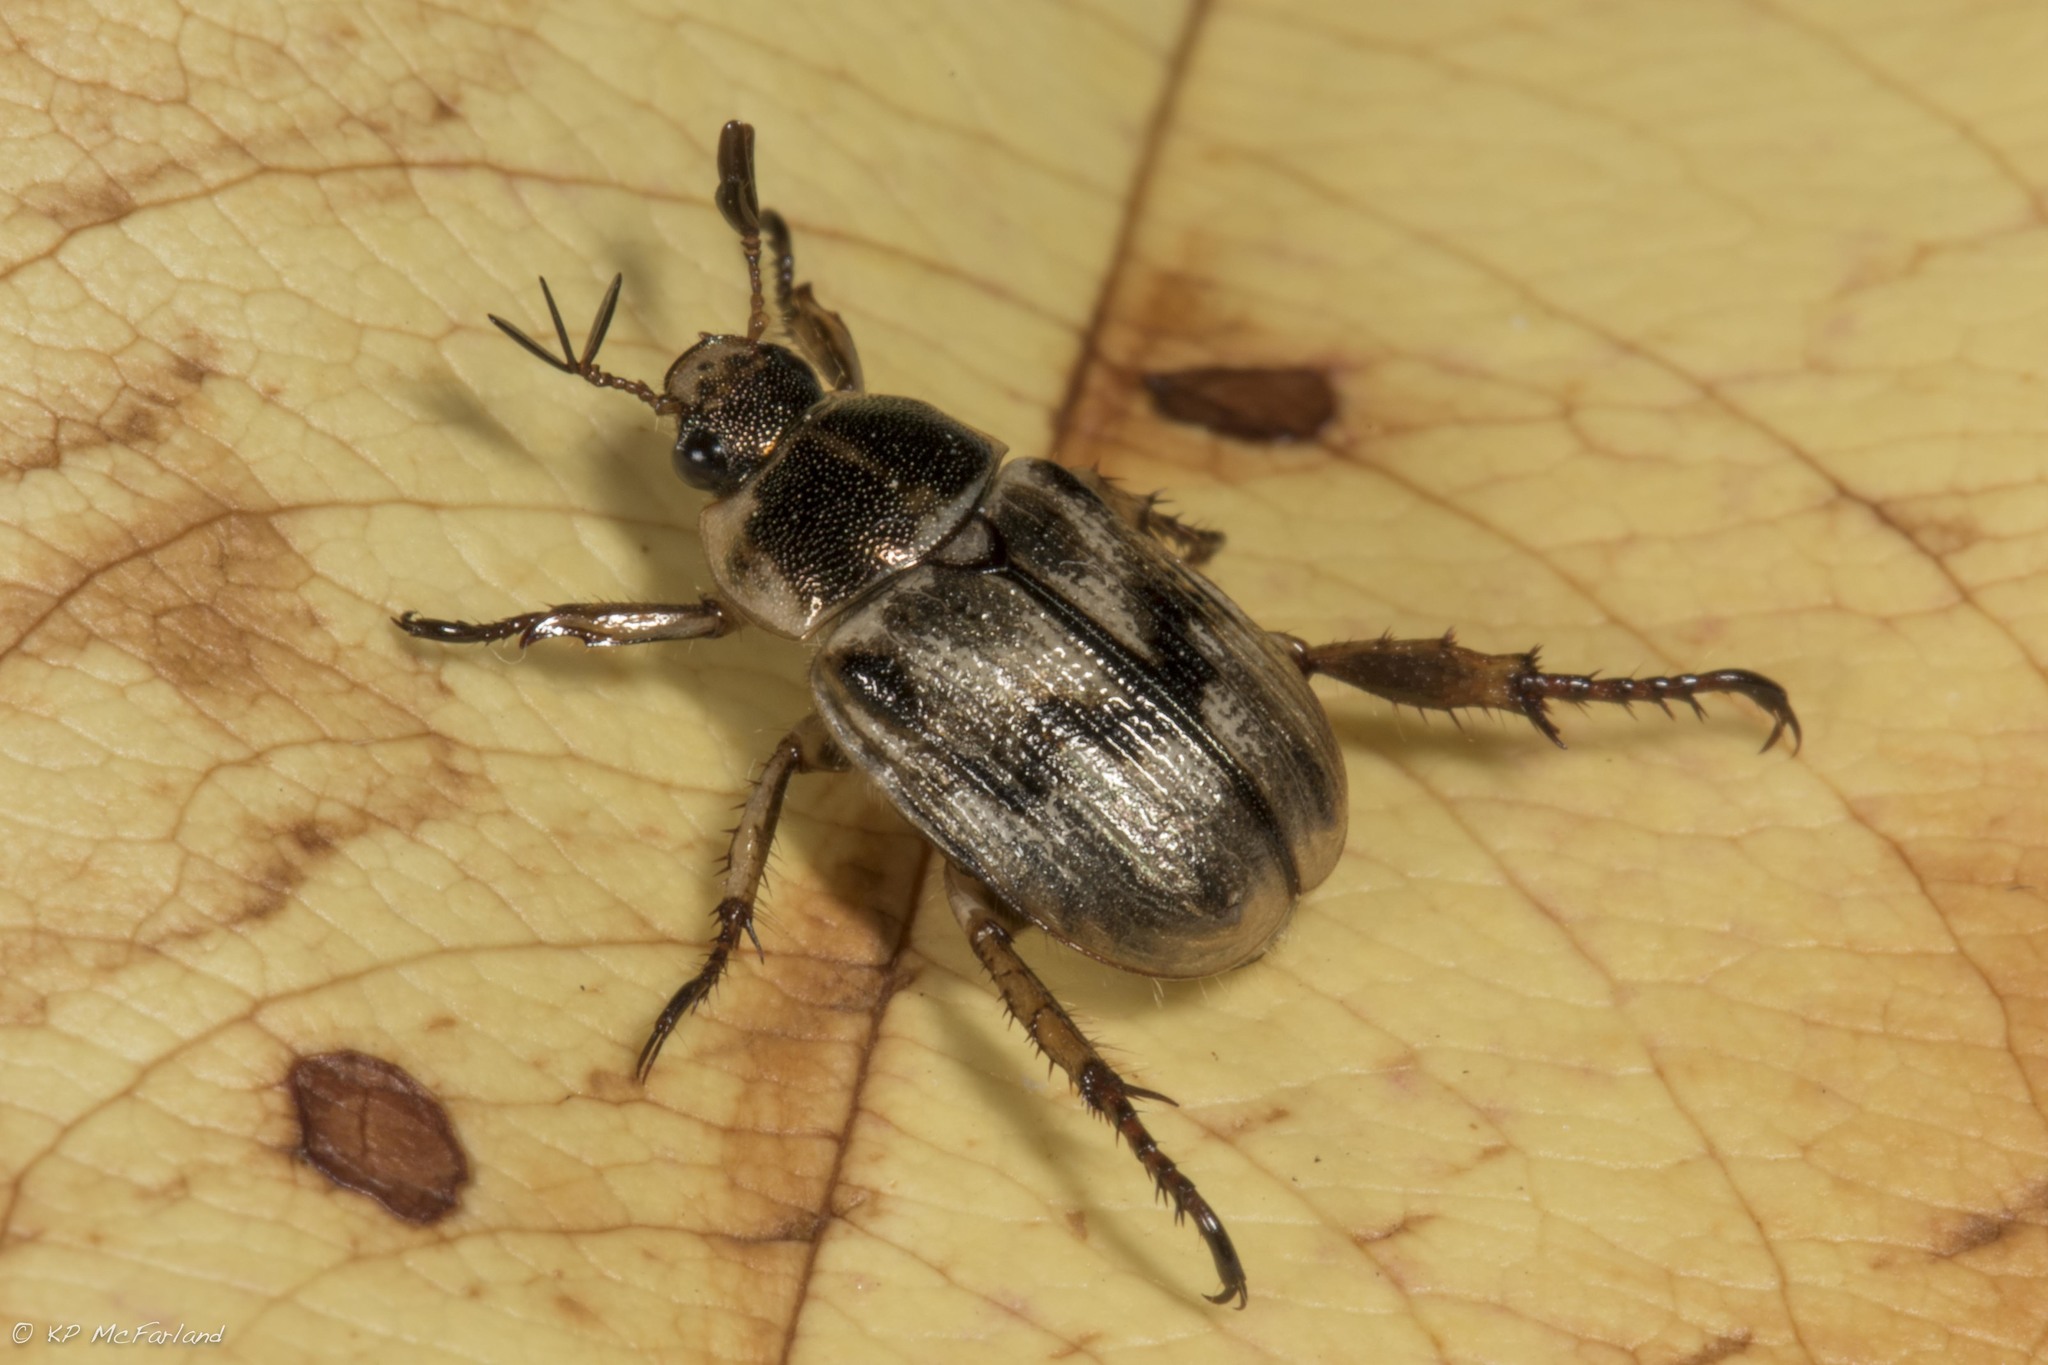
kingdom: Animalia
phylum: Arthropoda
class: Insecta
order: Coleoptera
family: Scarabaeidae
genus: Exomala
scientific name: Exomala orientalis
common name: Oriental beetle
